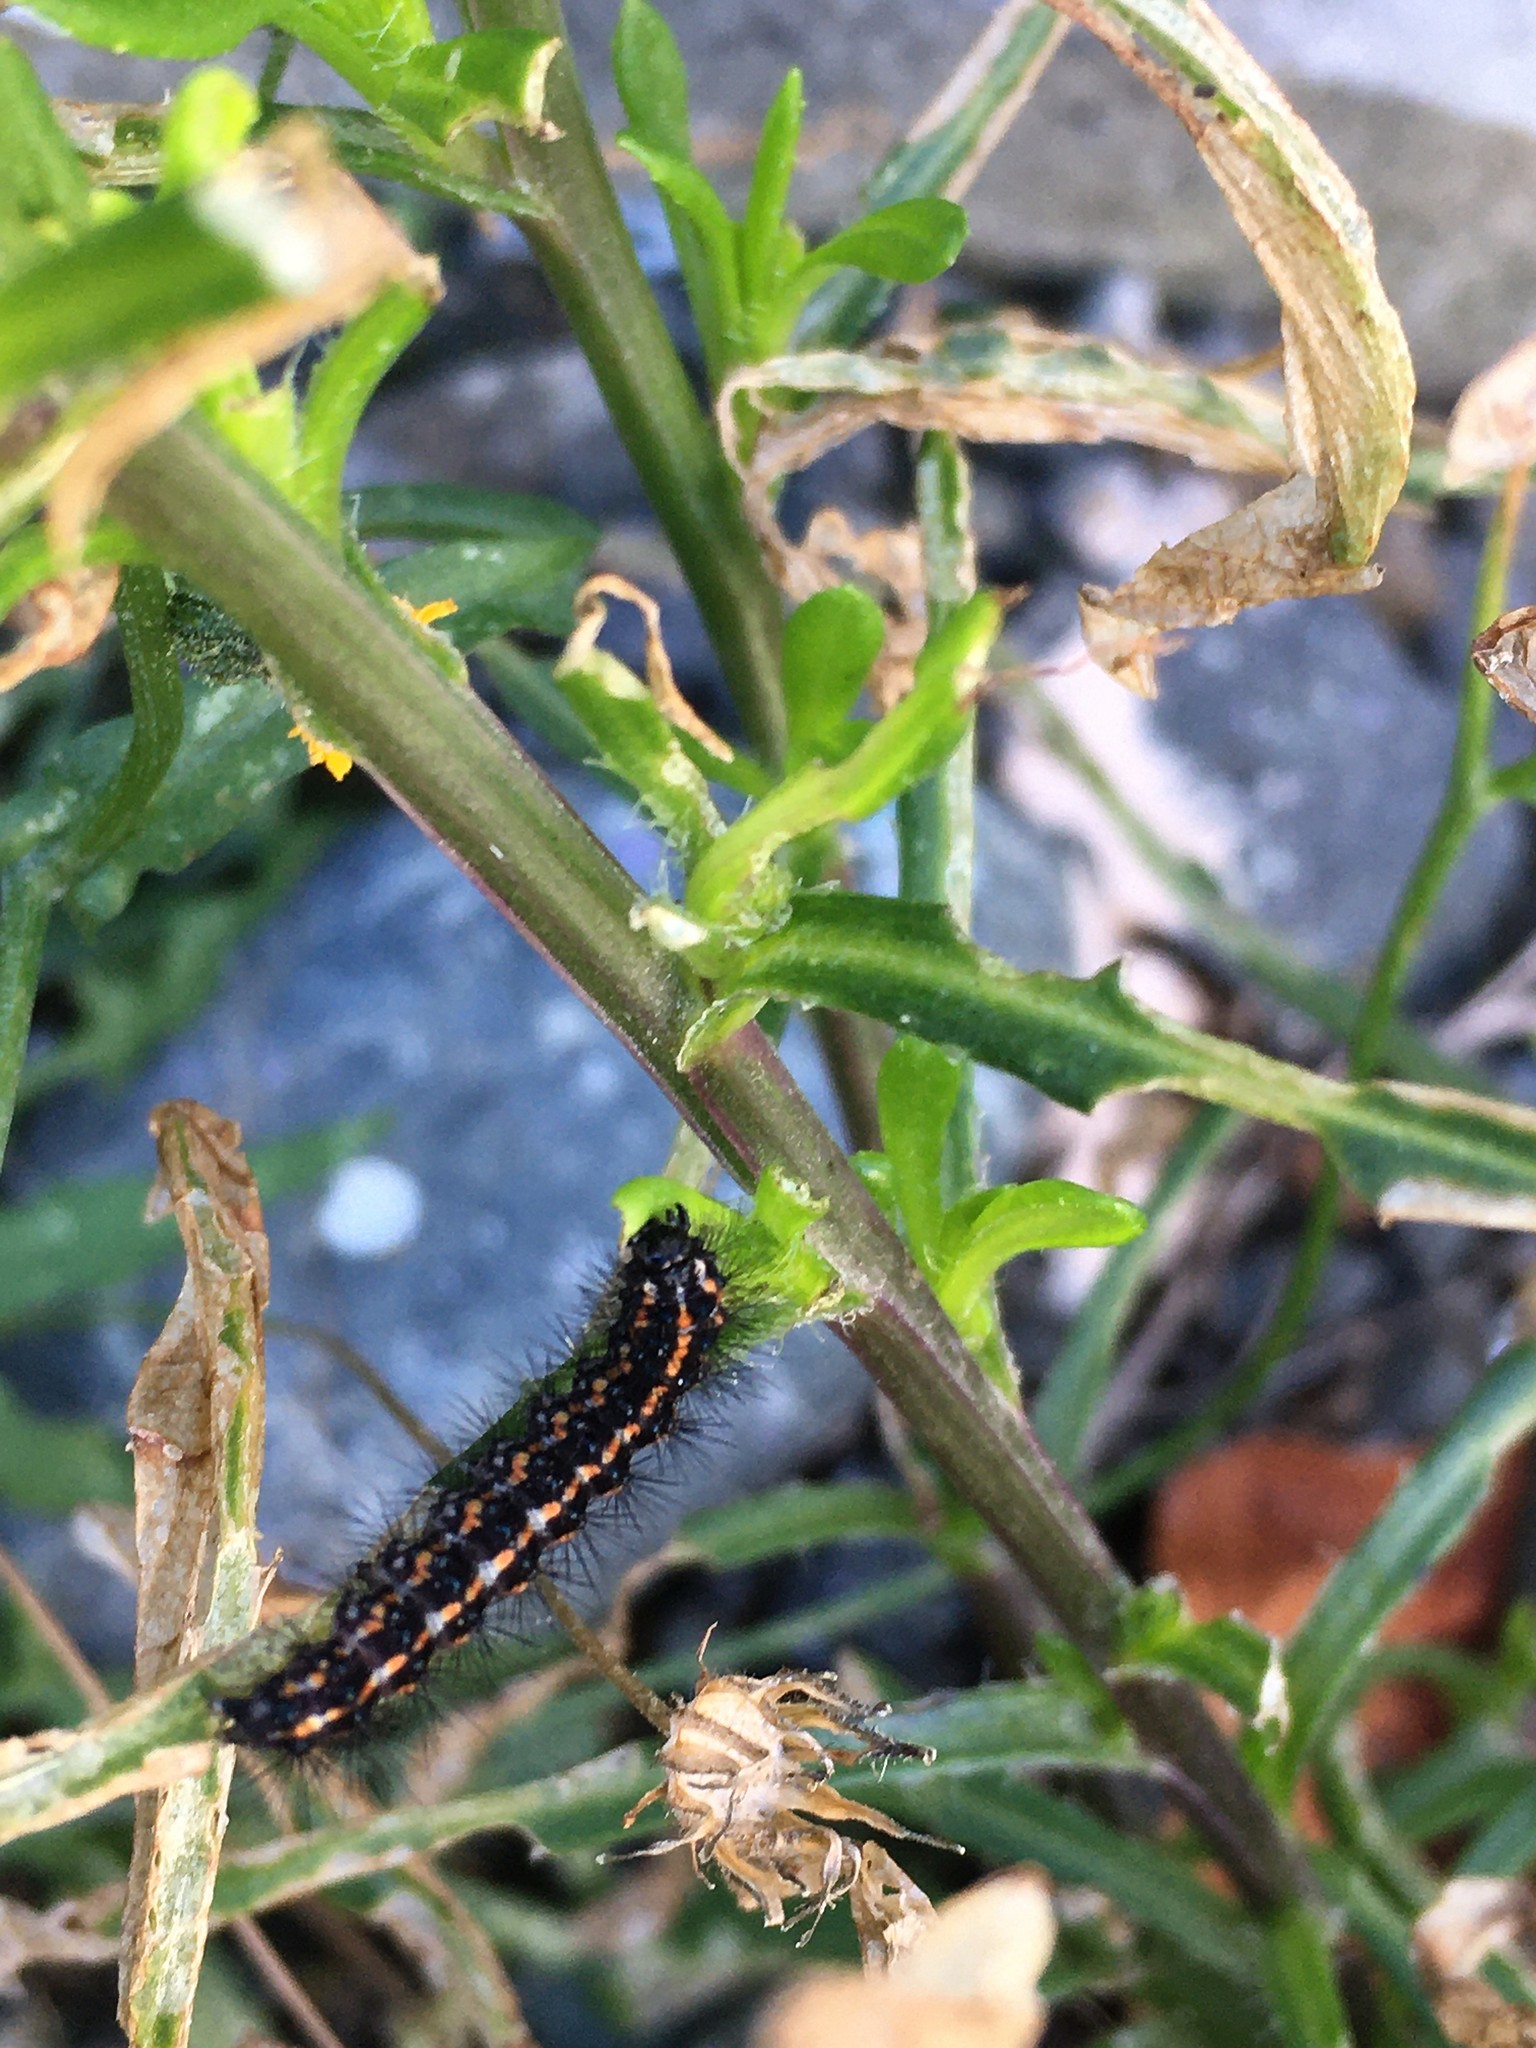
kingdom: Animalia
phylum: Arthropoda
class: Insecta
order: Lepidoptera
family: Erebidae
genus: Nyctemera
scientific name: Nyctemera annulatum
